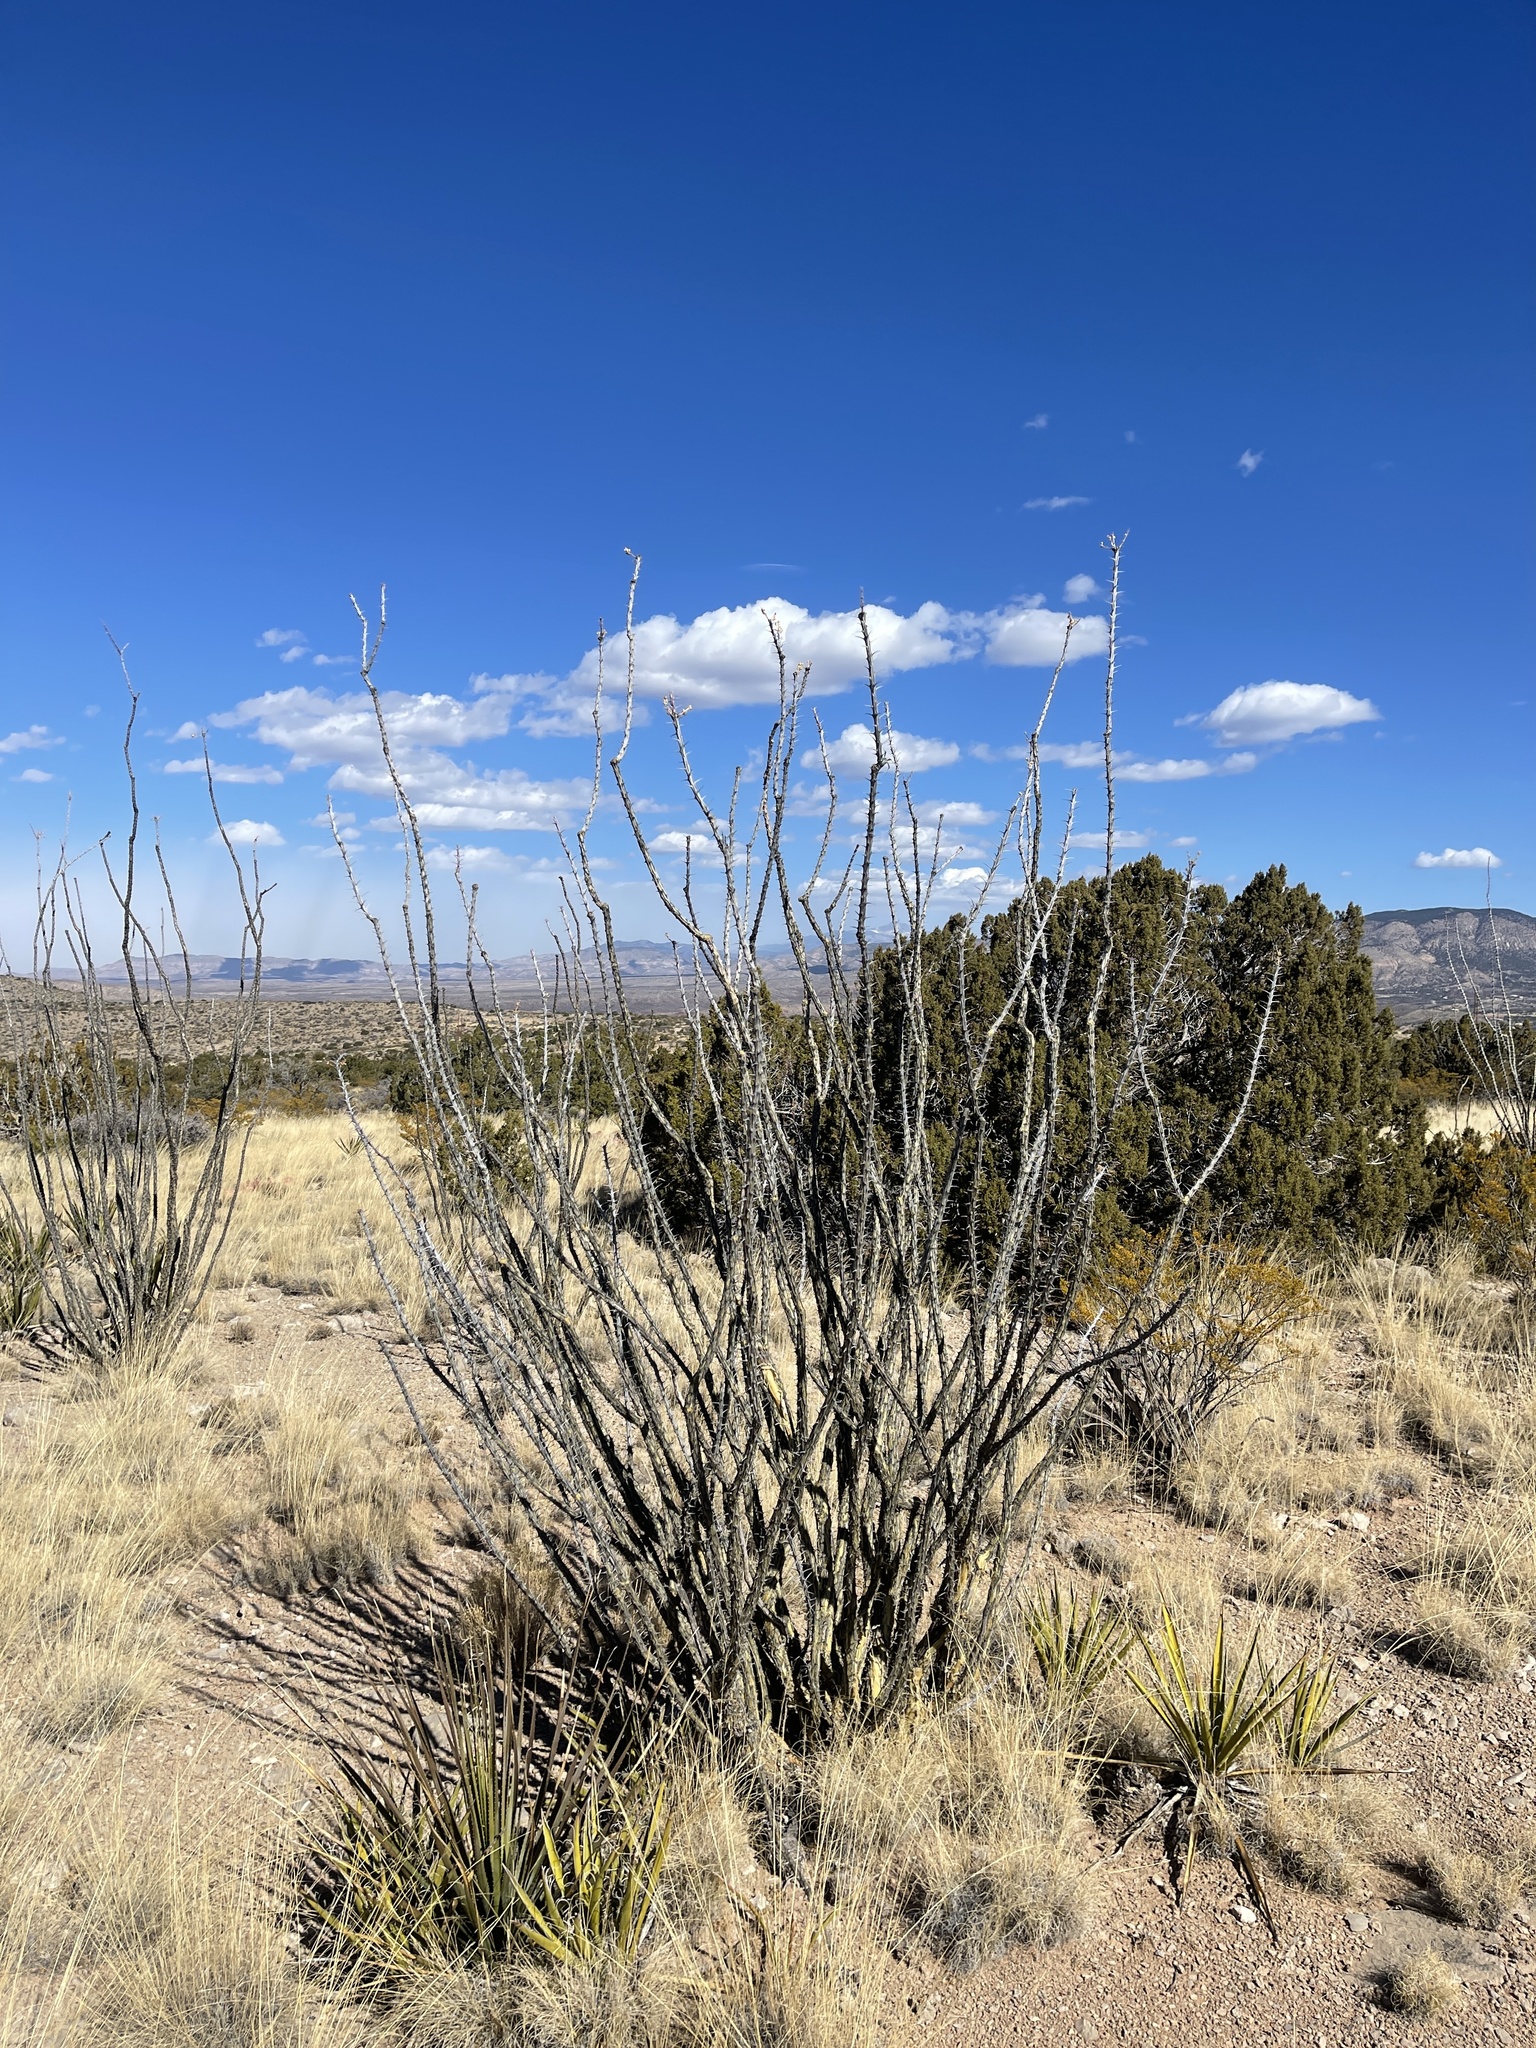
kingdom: Plantae
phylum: Tracheophyta
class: Magnoliopsida
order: Ericales
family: Fouquieriaceae
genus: Fouquieria
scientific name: Fouquieria splendens
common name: Vine-cactus
